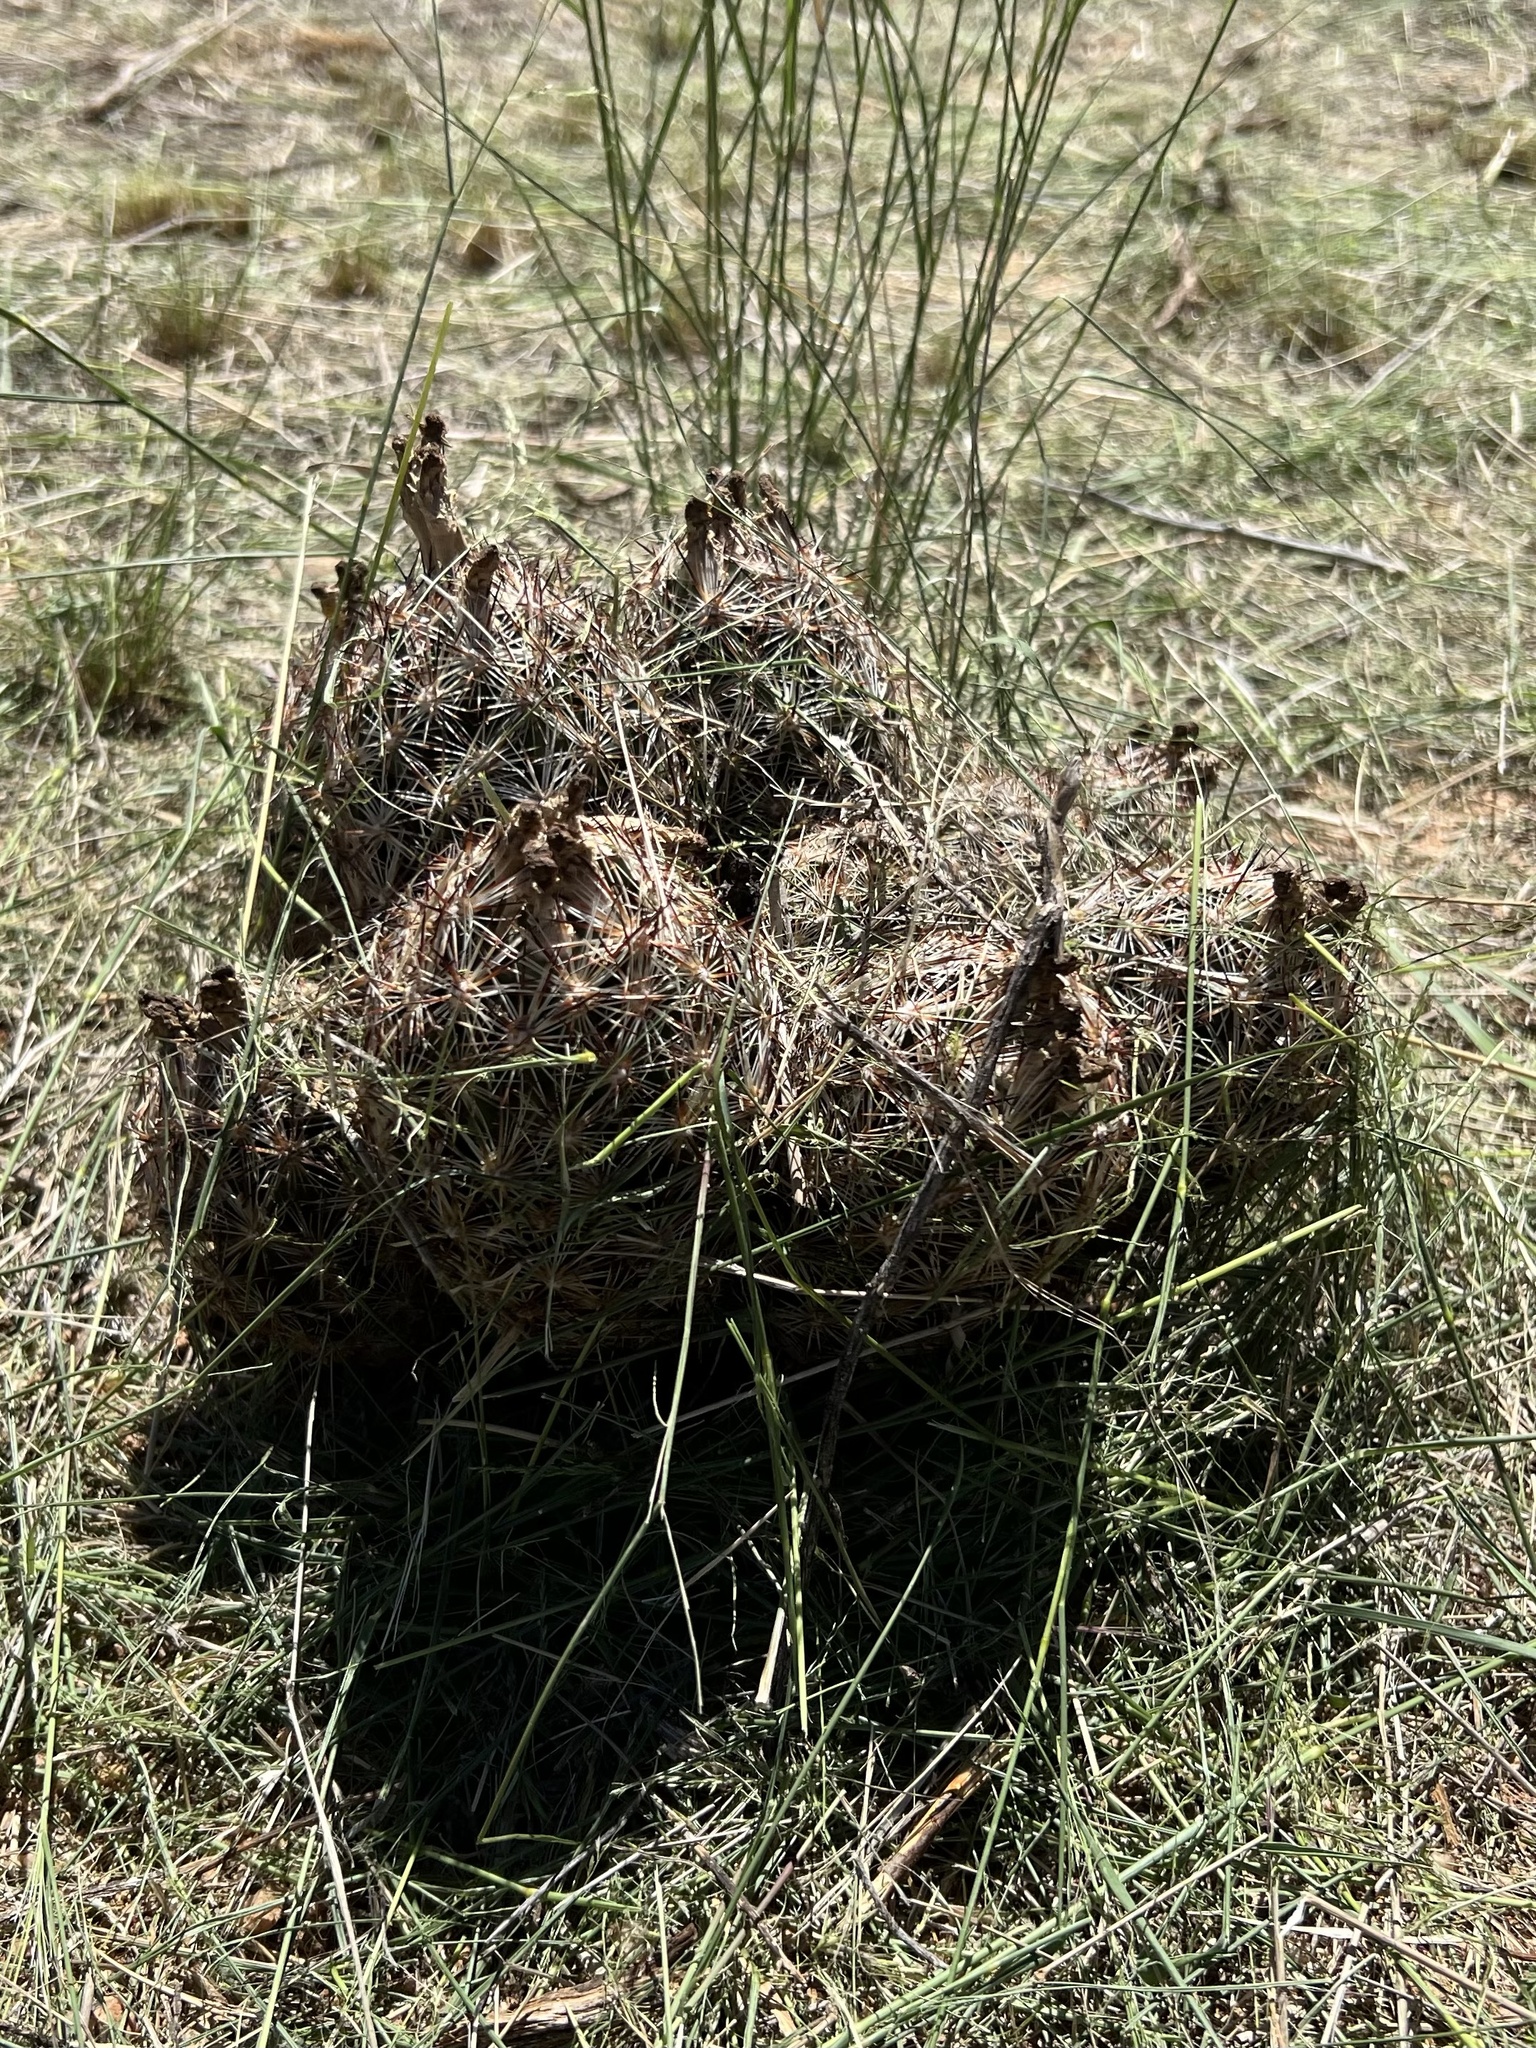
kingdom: Plantae
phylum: Tracheophyta
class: Magnoliopsida
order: Caryophyllales
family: Cactaceae
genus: Pelecyphora
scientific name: Pelecyphora vivipara
